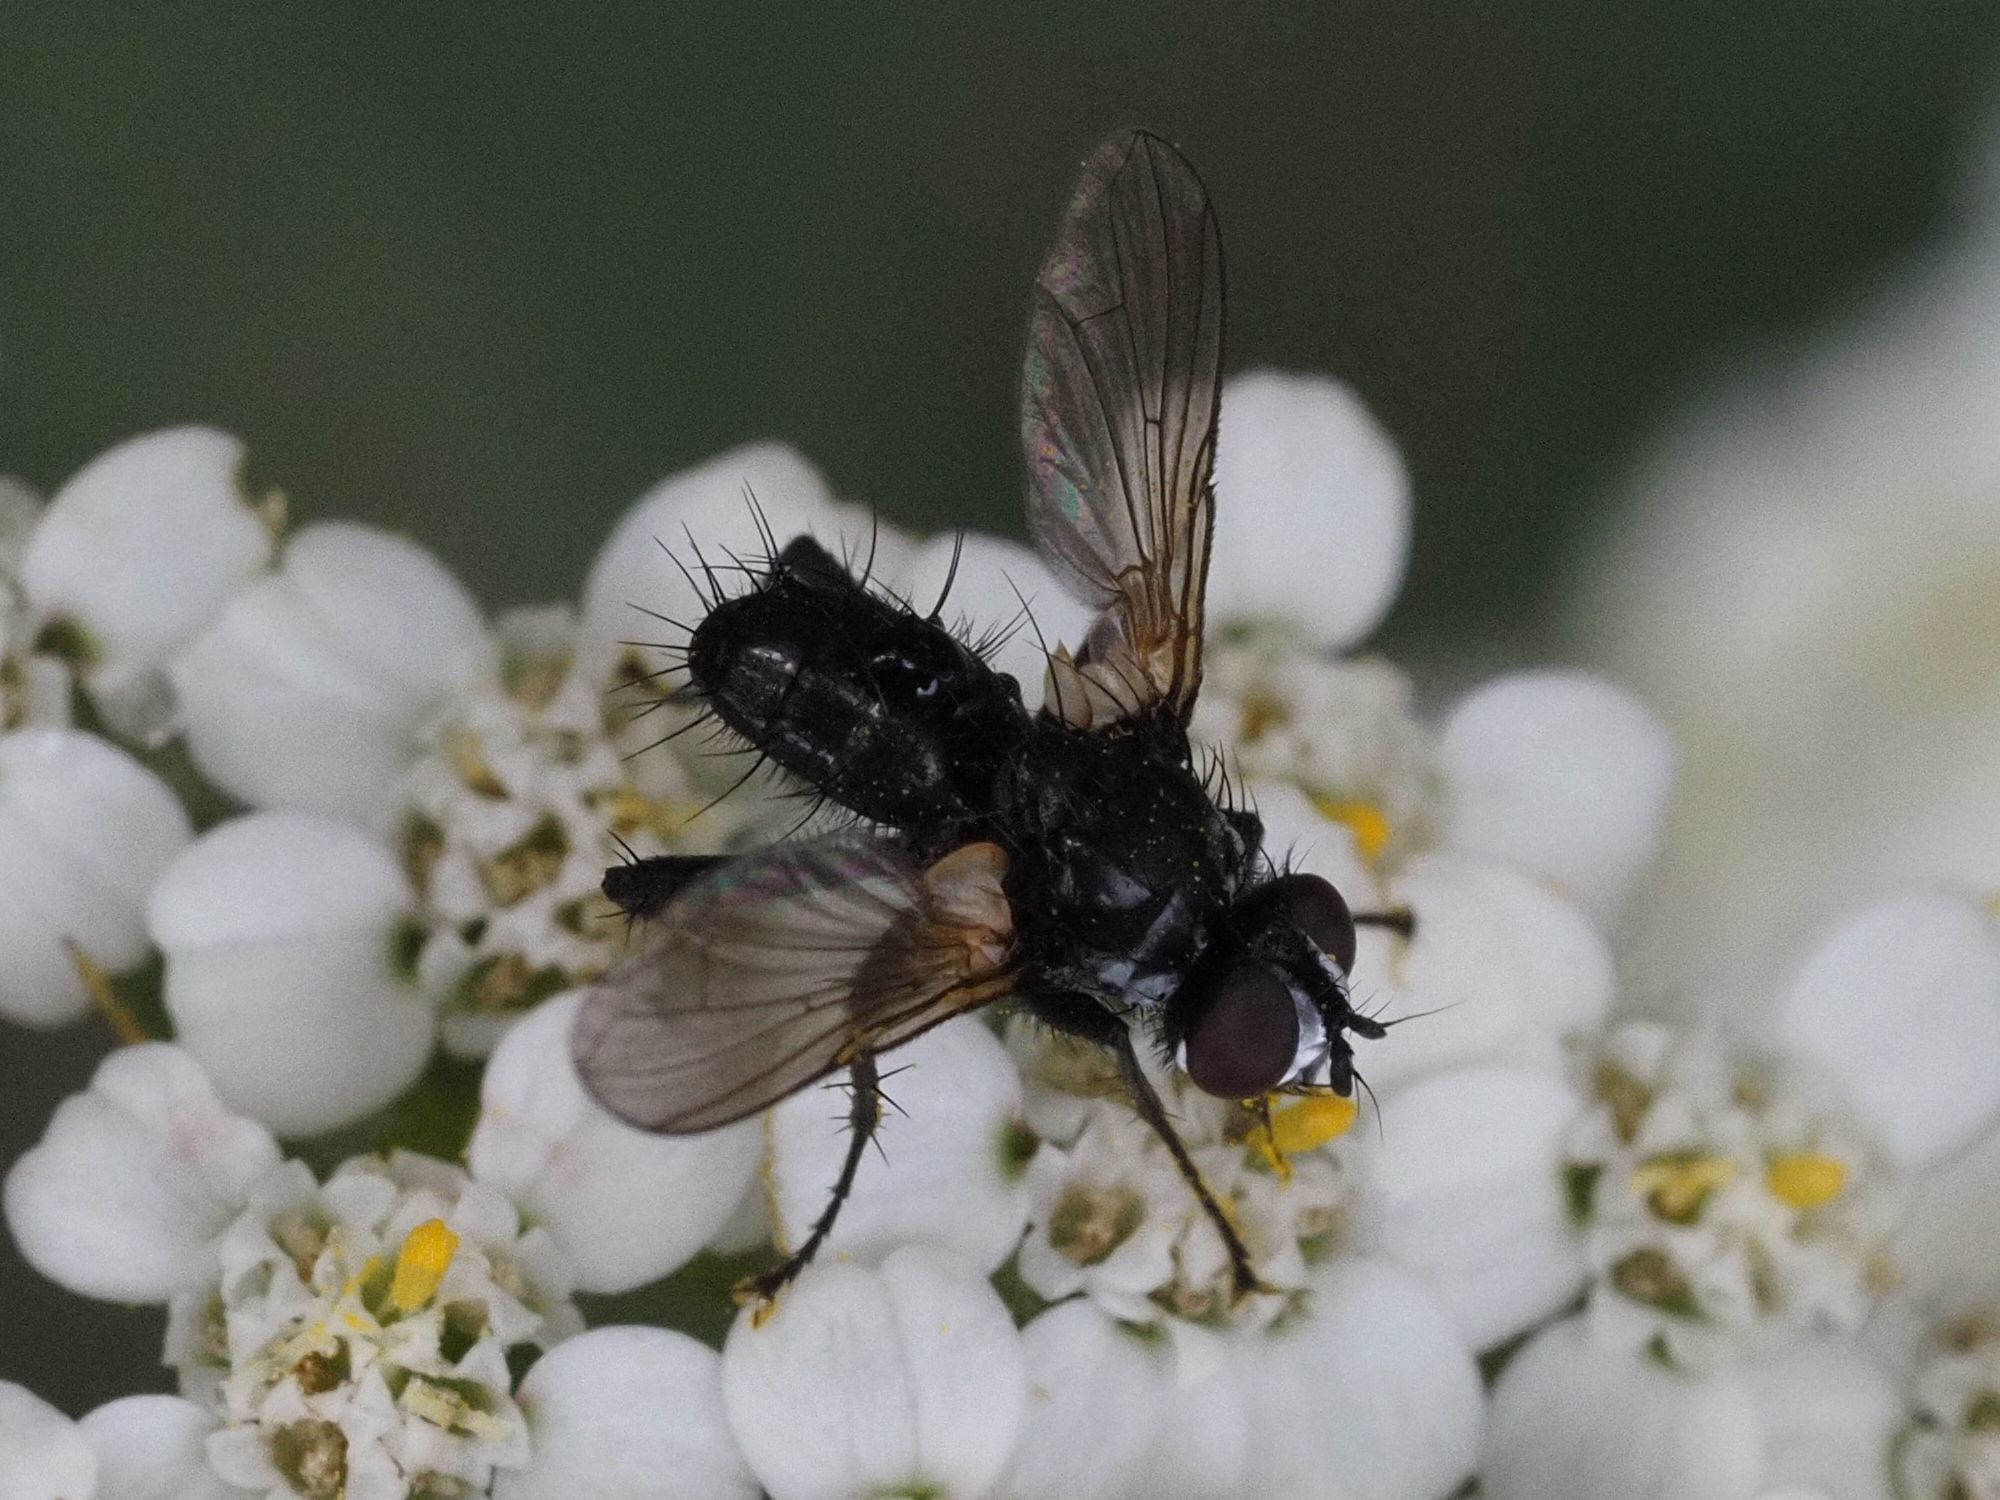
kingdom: Animalia
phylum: Arthropoda
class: Insecta
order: Diptera
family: Tachinidae
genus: Phania
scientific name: Phania funesta
